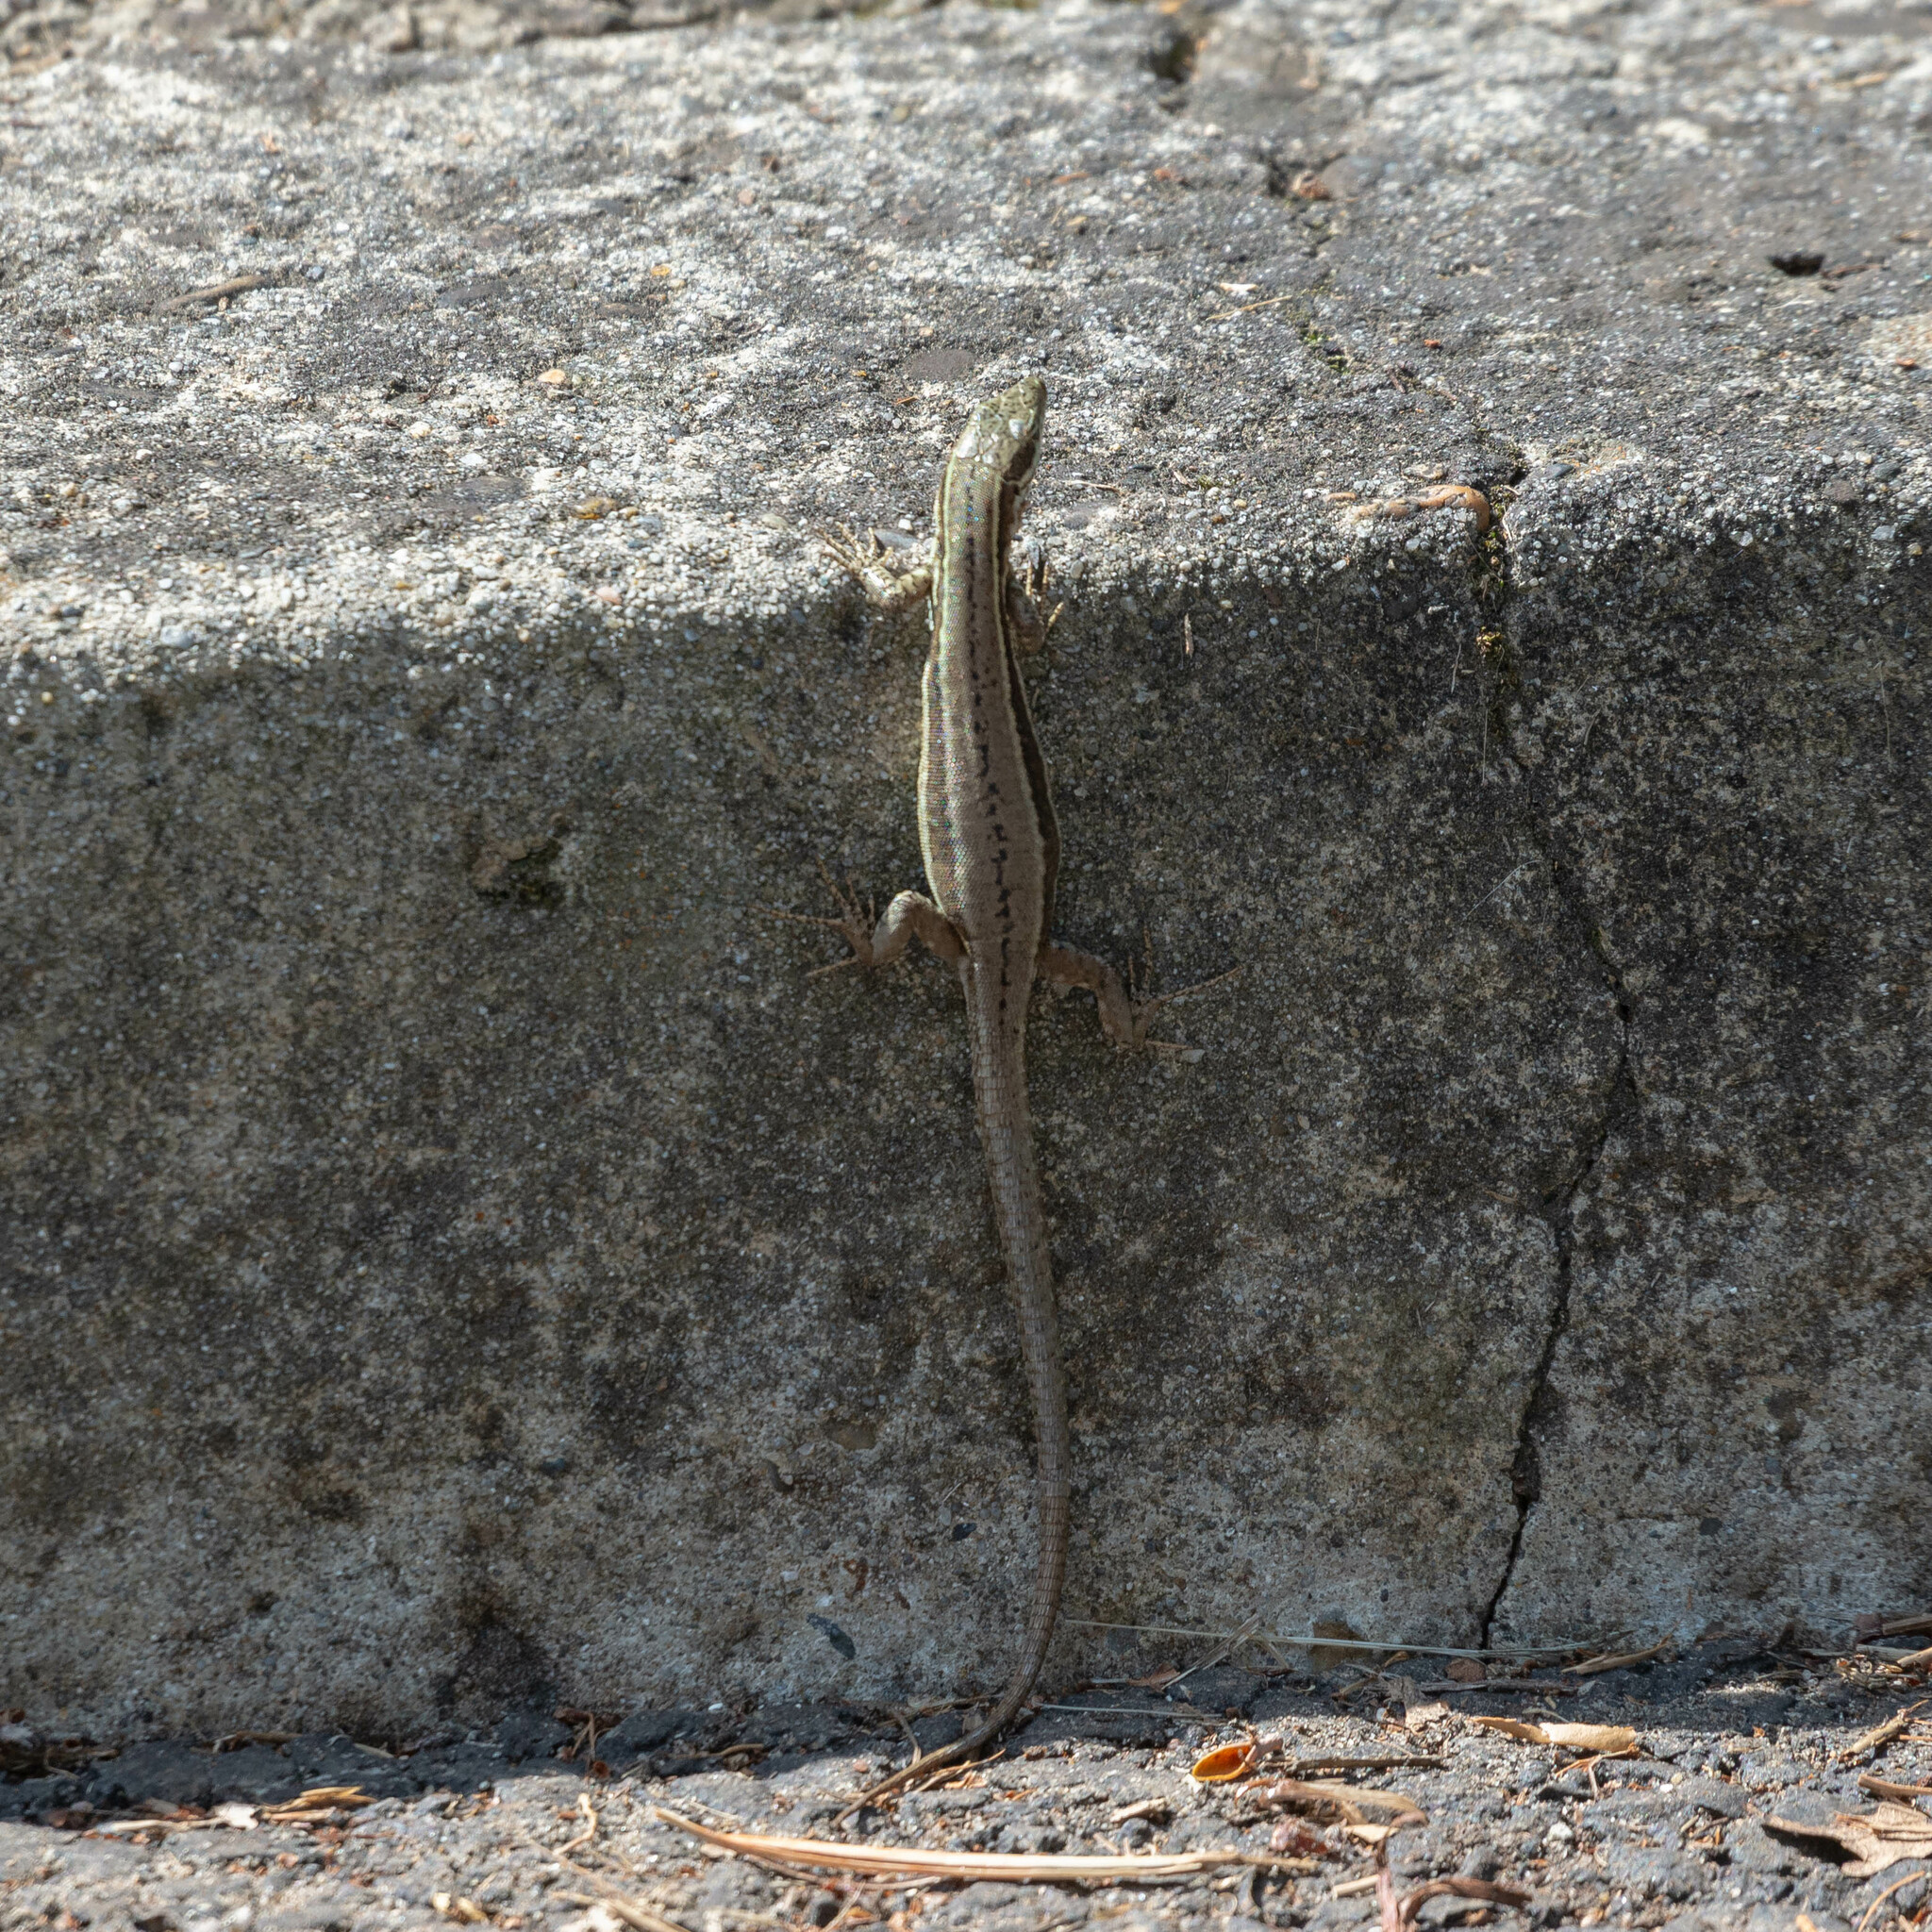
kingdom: Animalia
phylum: Chordata
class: Squamata
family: Lacertidae
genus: Podarcis
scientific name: Podarcis muralis
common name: Common wall lizard
